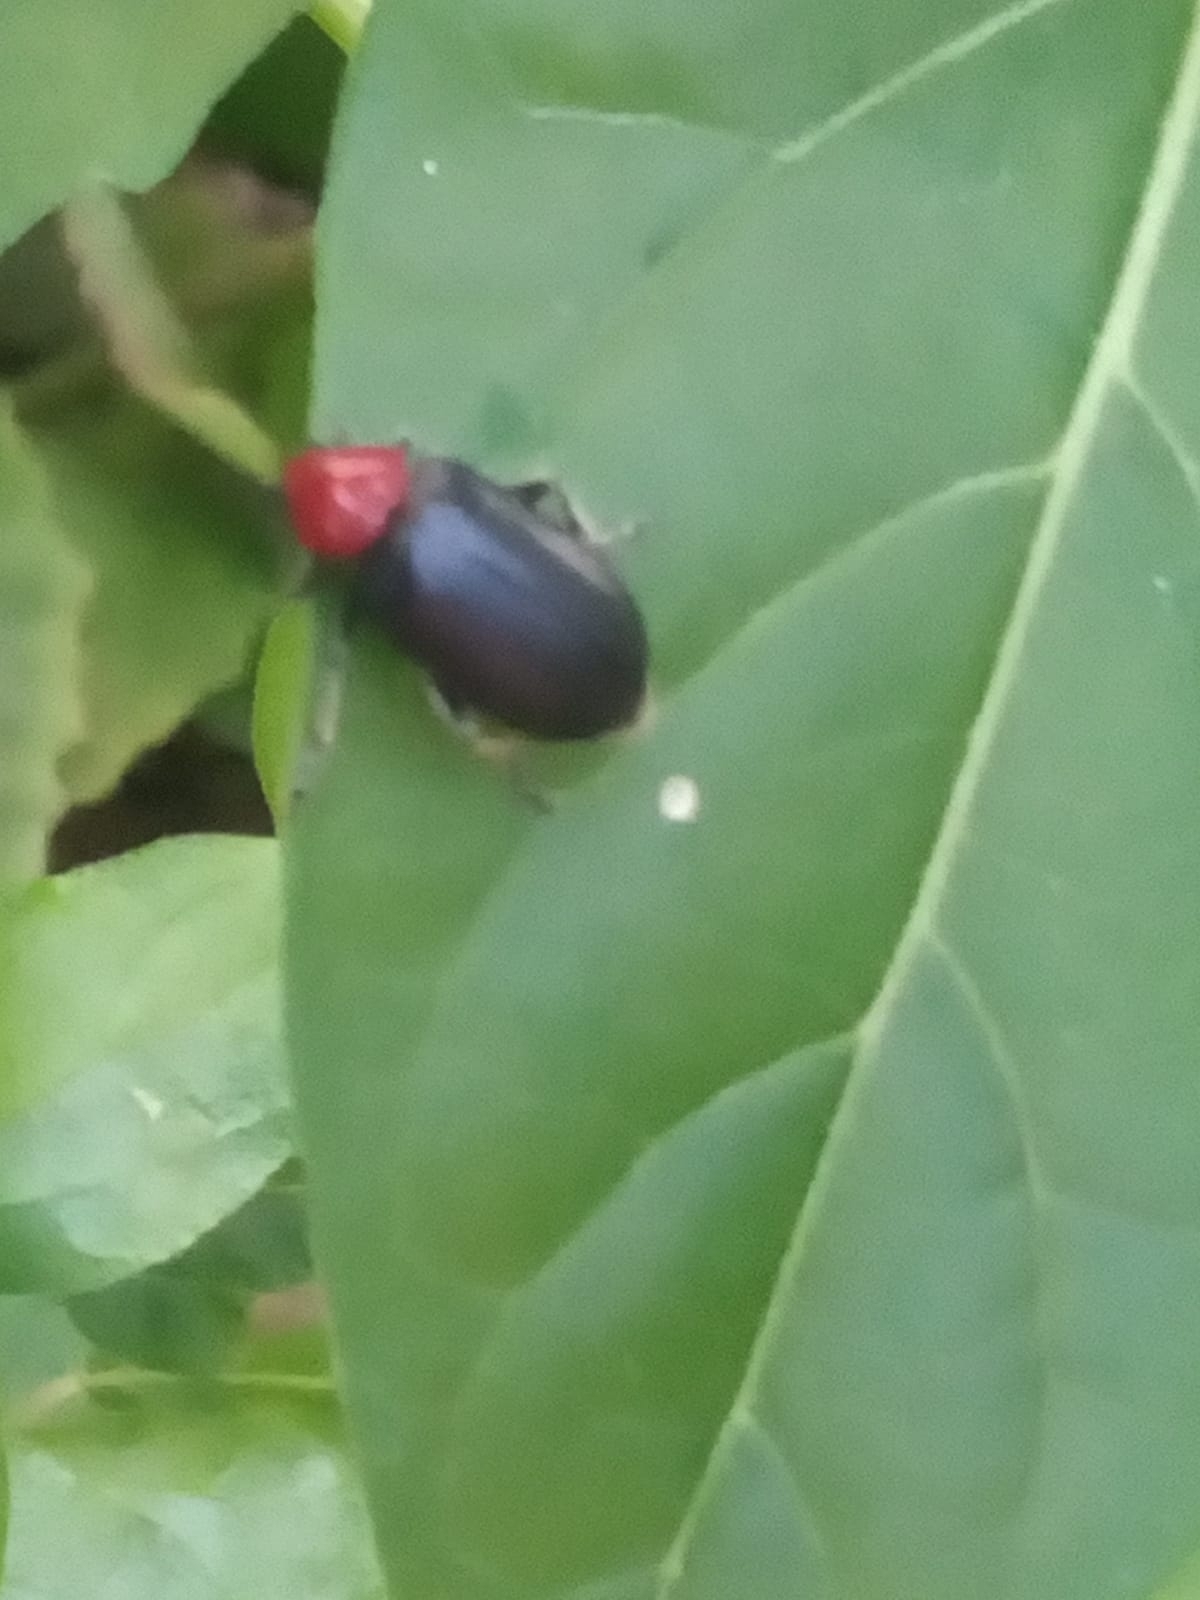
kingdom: Animalia
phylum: Arthropoda
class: Insecta
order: Coleoptera
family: Chrysomelidae
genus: Cacoscelis
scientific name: Cacoscelis
